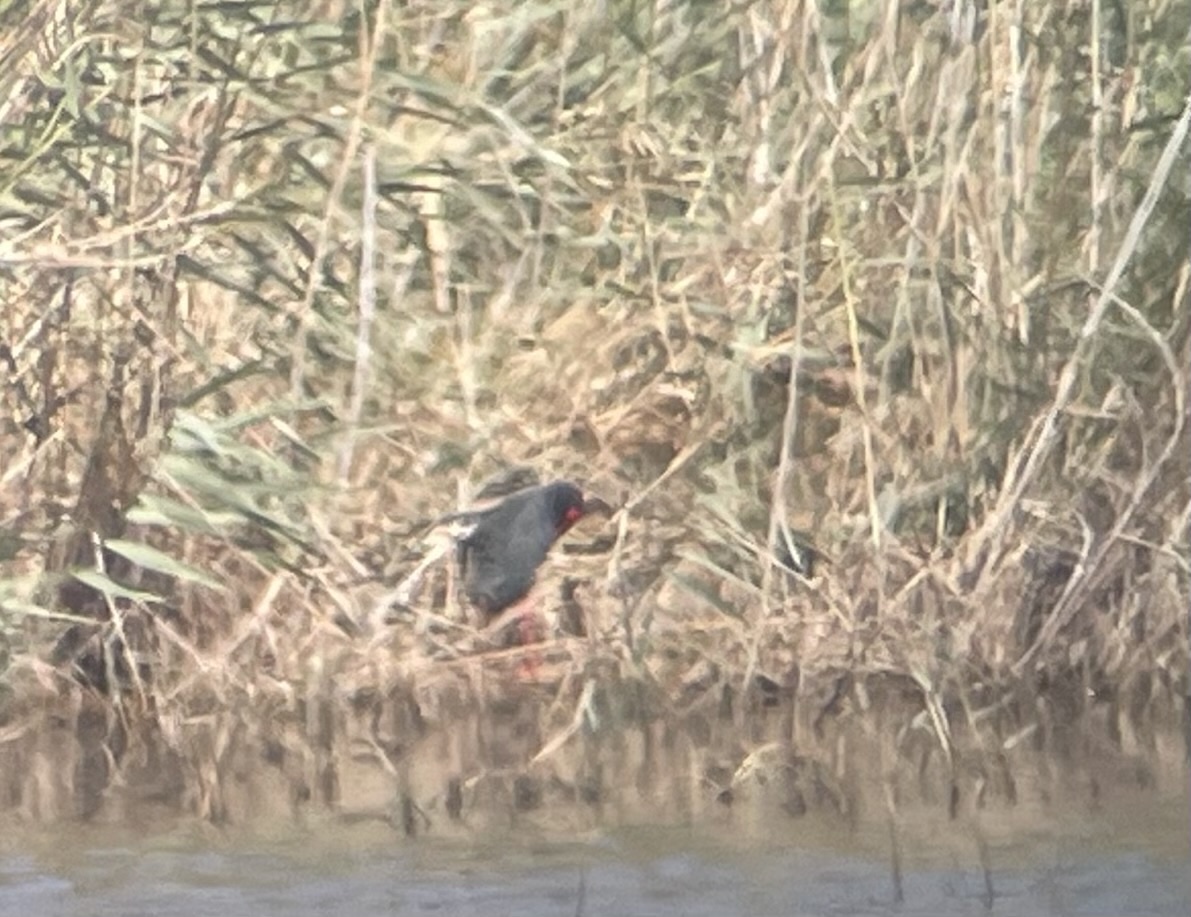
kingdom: Animalia
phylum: Chordata
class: Aves
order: Gruiformes
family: Rallidae
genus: Porphyrio
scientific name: Porphyrio porphyrio
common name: Purple swamphen
